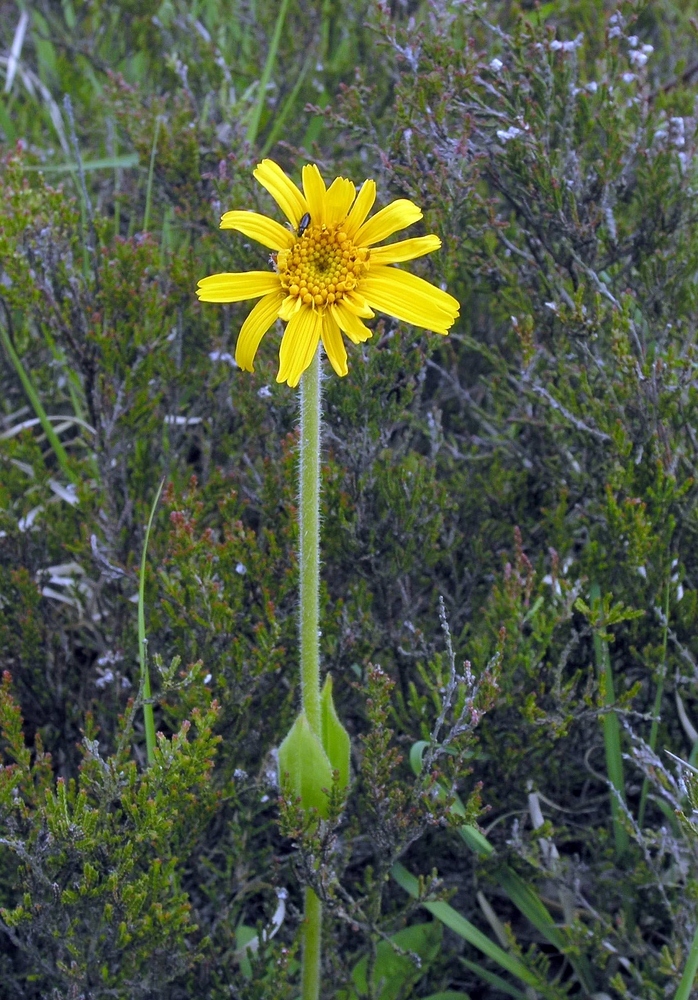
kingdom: Plantae
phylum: Tracheophyta
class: Magnoliopsida
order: Asterales
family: Asteraceae
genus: Arnica
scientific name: Arnica montana
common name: Leopard's bane
